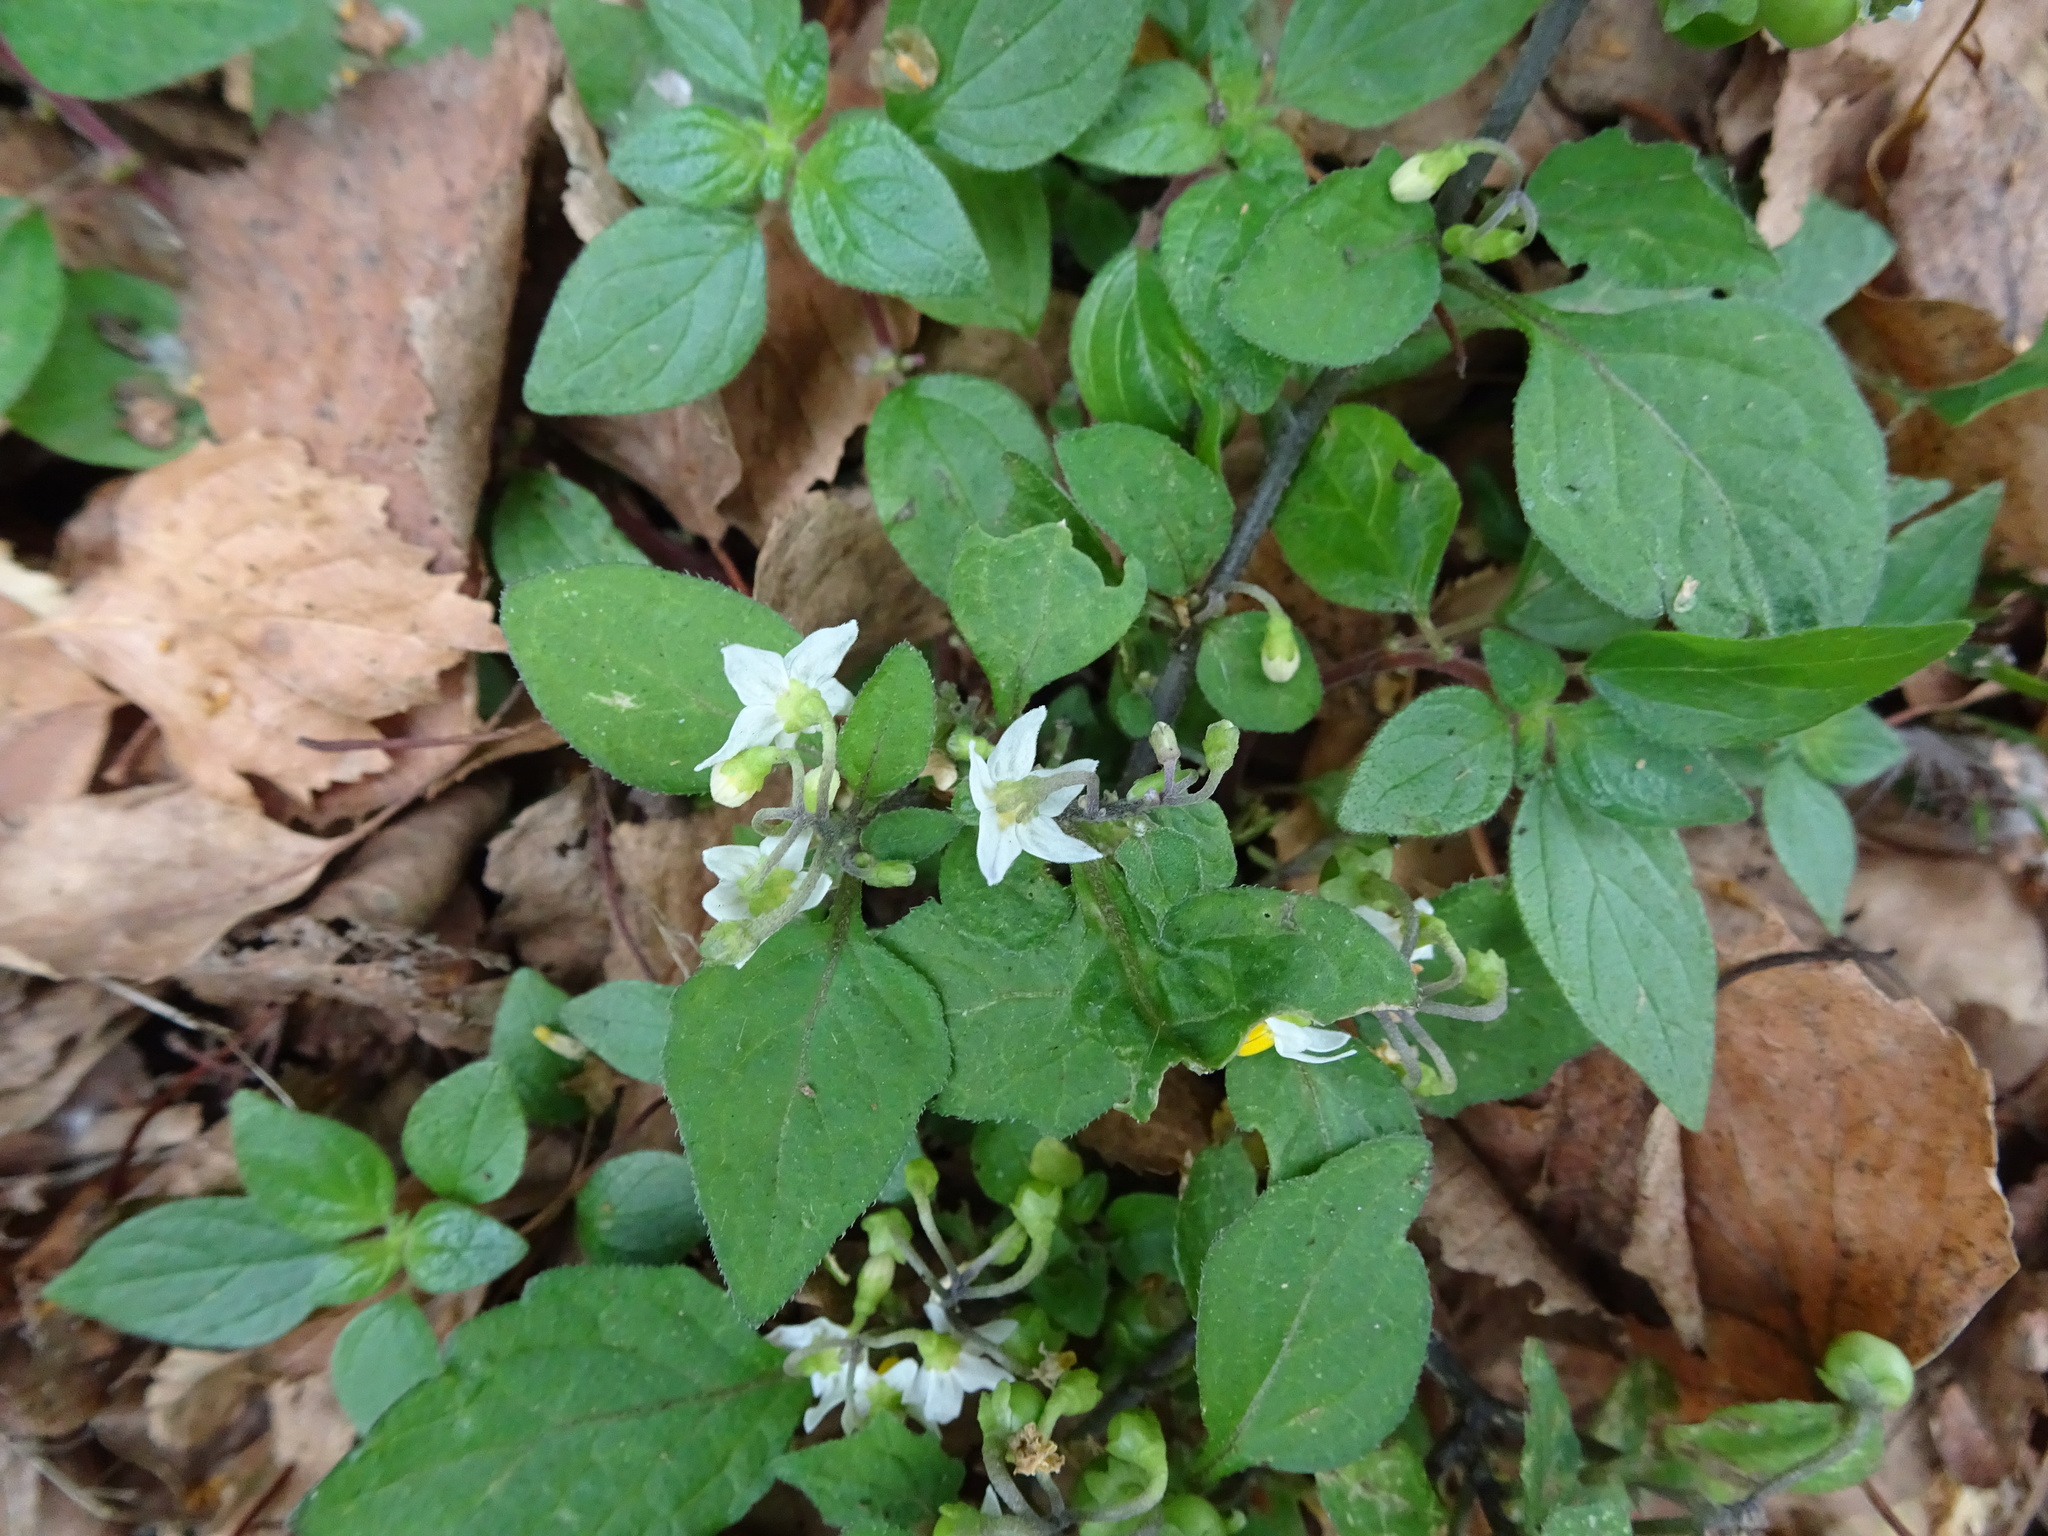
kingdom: Plantae
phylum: Tracheophyta
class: Magnoliopsida
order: Solanales
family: Solanaceae
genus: Solanum
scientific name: Solanum nigrum
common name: Black nightshade
